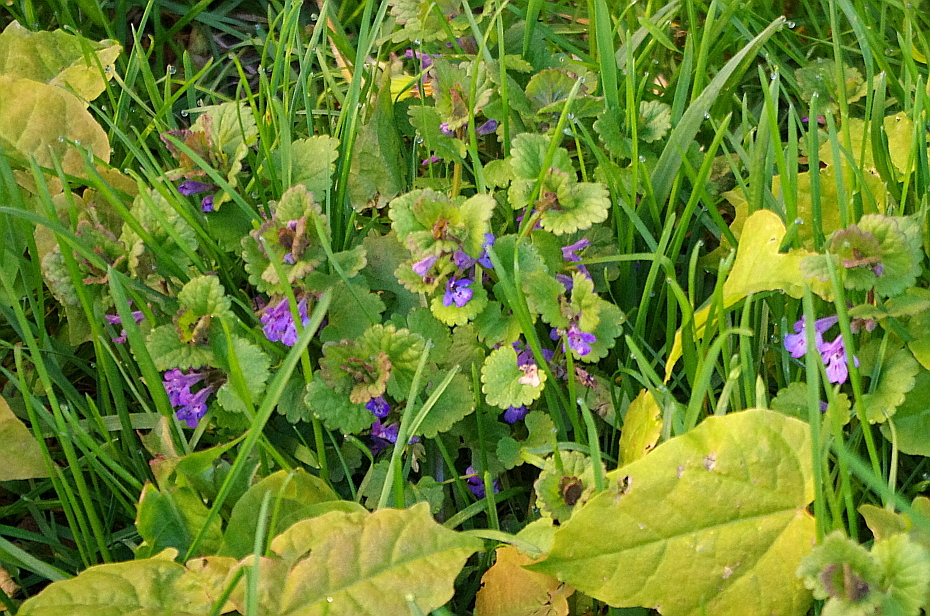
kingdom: Plantae
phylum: Tracheophyta
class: Magnoliopsida
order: Lamiales
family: Lamiaceae
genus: Glechoma
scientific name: Glechoma hederacea
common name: Ground ivy
